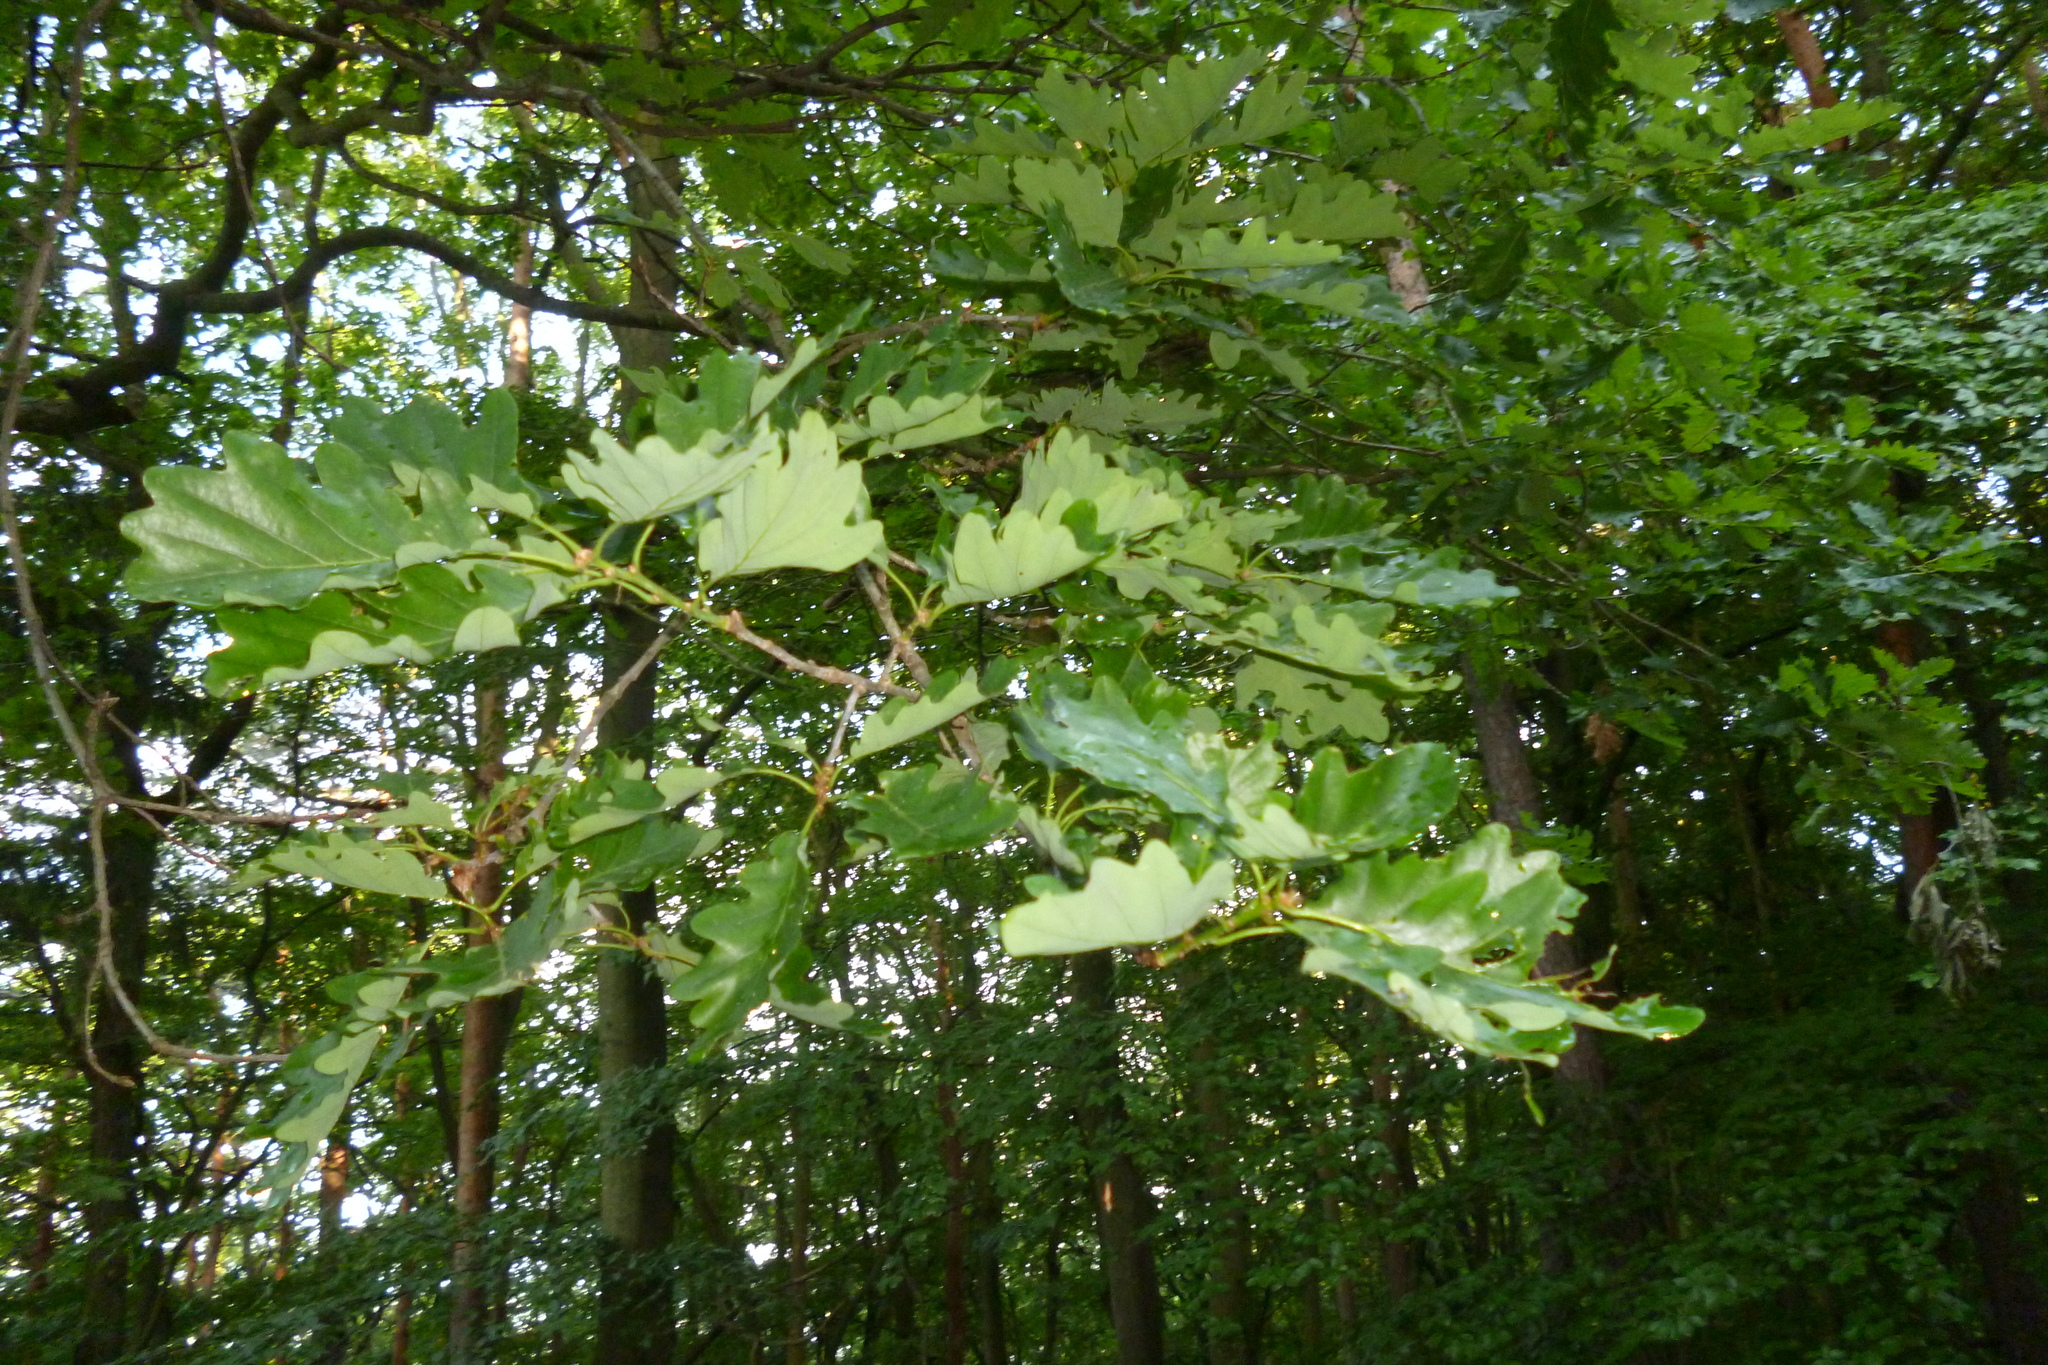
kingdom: Plantae
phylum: Tracheophyta
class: Magnoliopsida
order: Fagales
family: Fagaceae
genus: Quercus
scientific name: Quercus petraea
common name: Sessile oak
